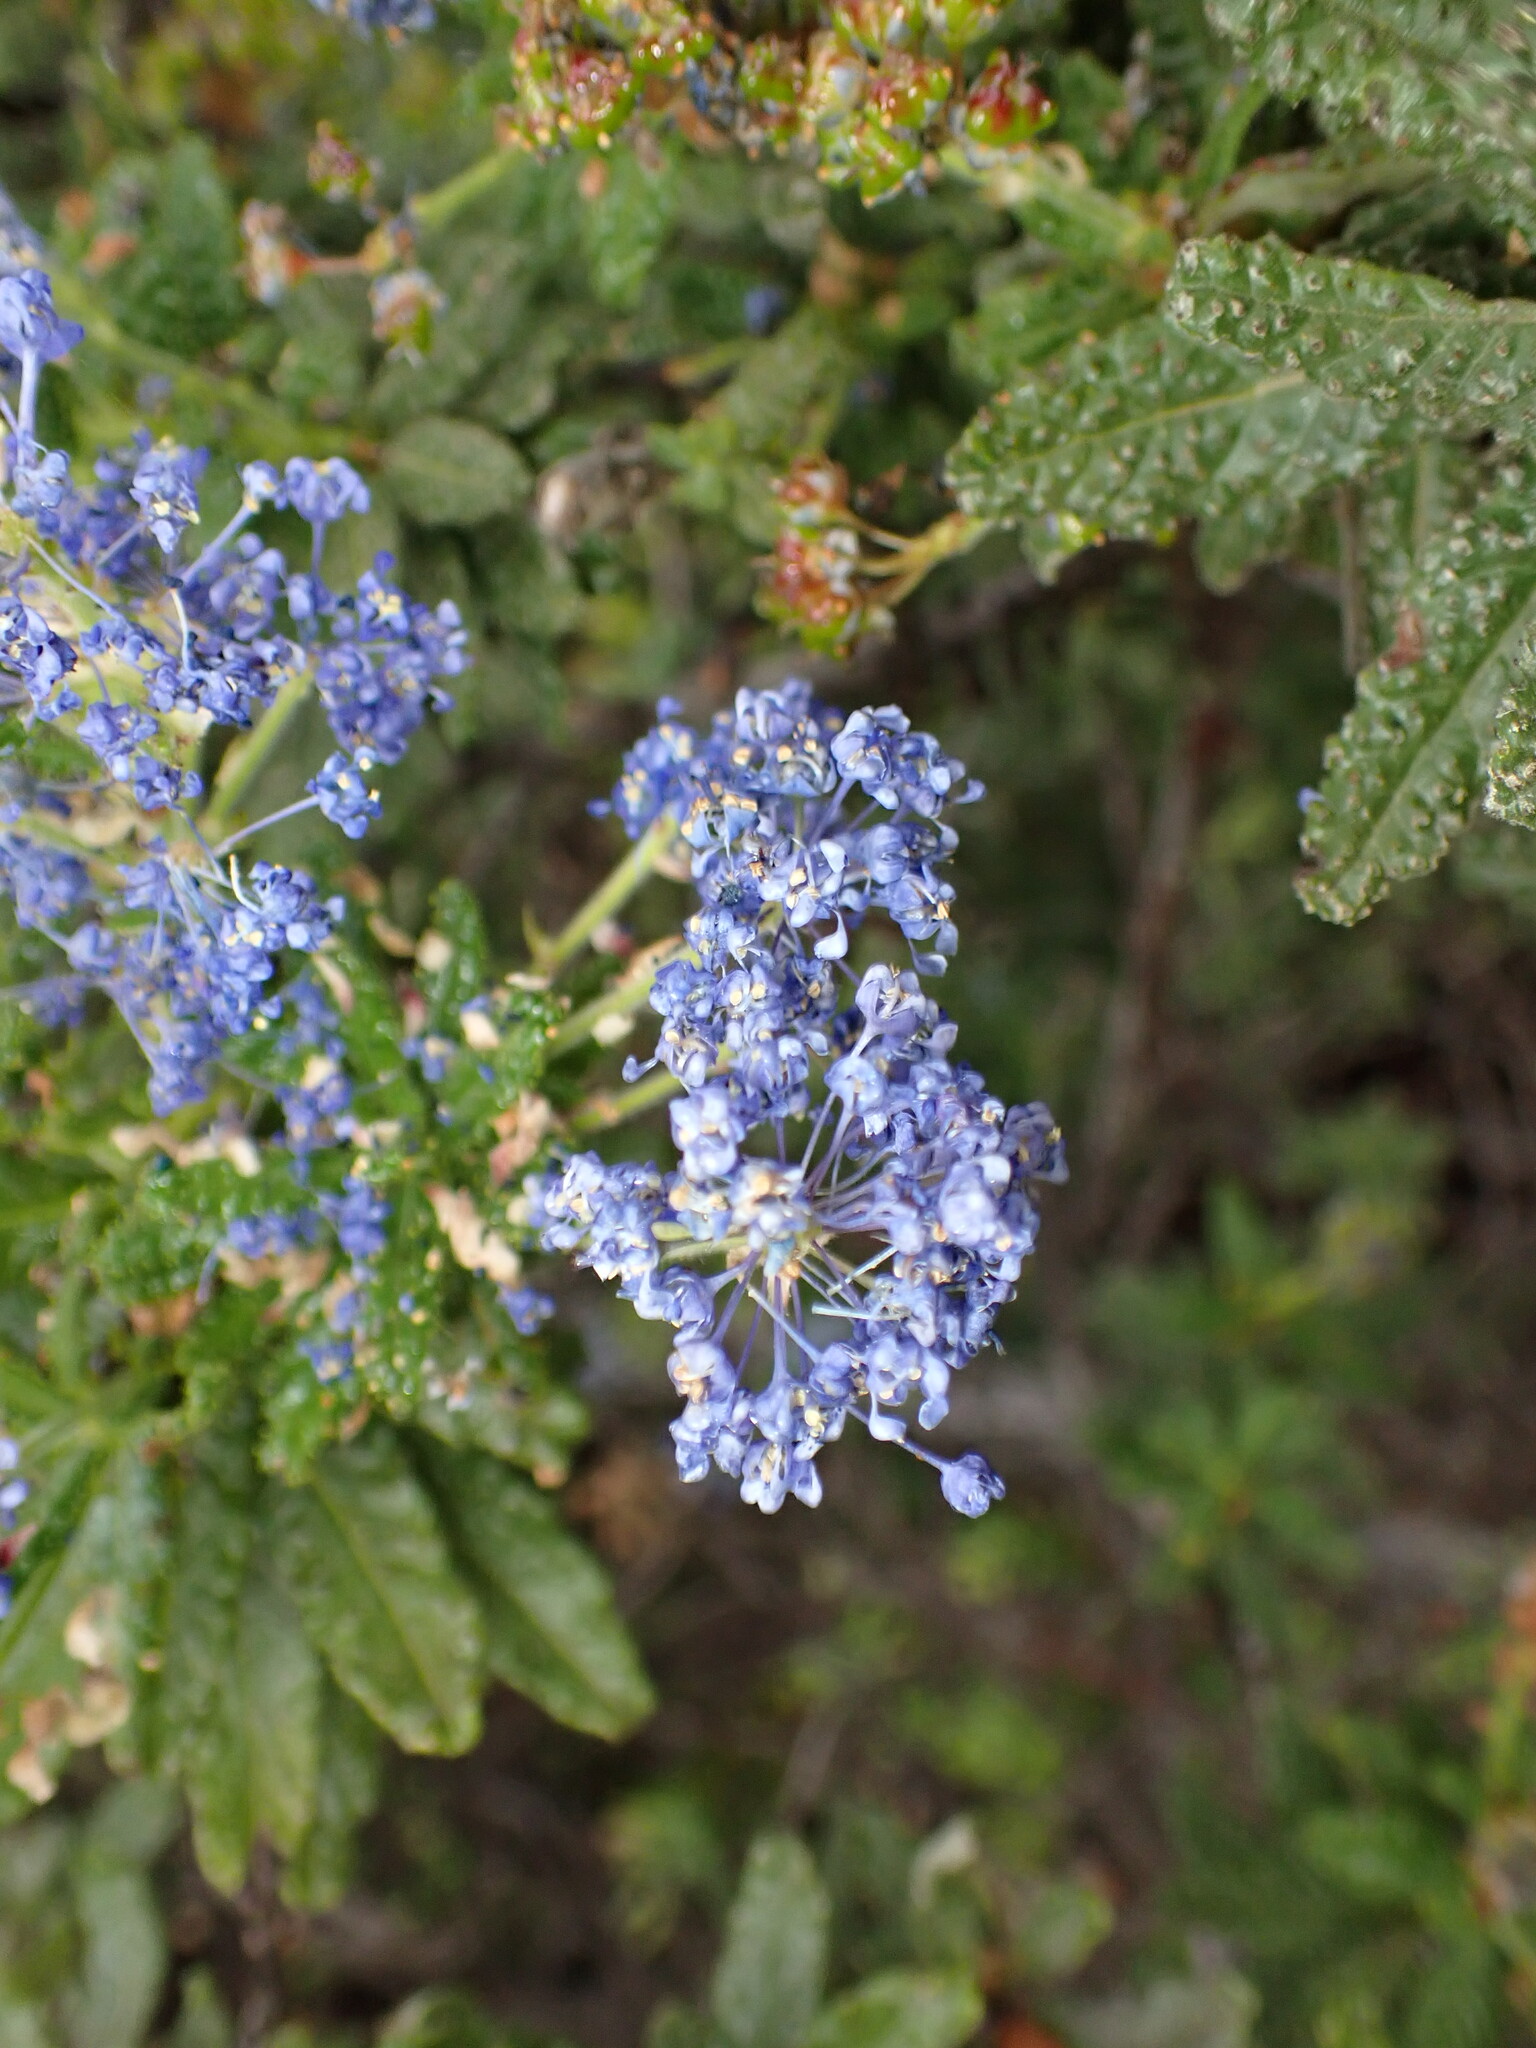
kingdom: Plantae
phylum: Tracheophyta
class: Magnoliopsida
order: Rosales
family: Rhamnaceae
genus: Ceanothus
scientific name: Ceanothus papillosus
